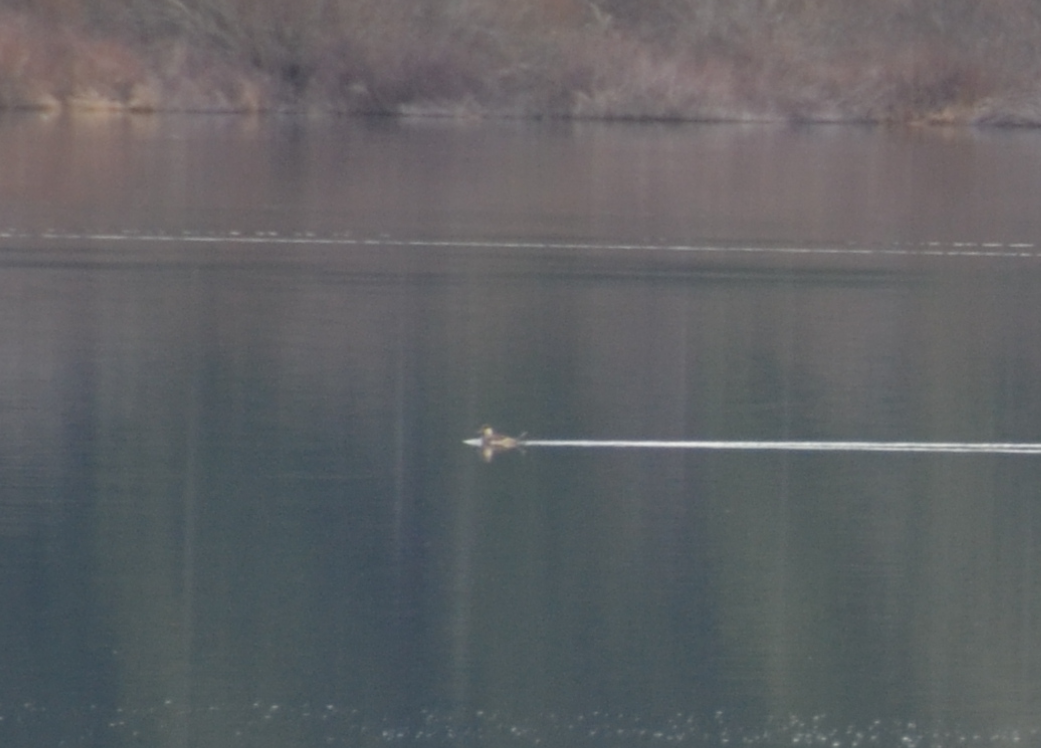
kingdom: Animalia
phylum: Chordata
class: Aves
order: Anseriformes
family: Anatidae
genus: Oxyura
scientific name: Oxyura jamaicensis
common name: Ruddy duck
